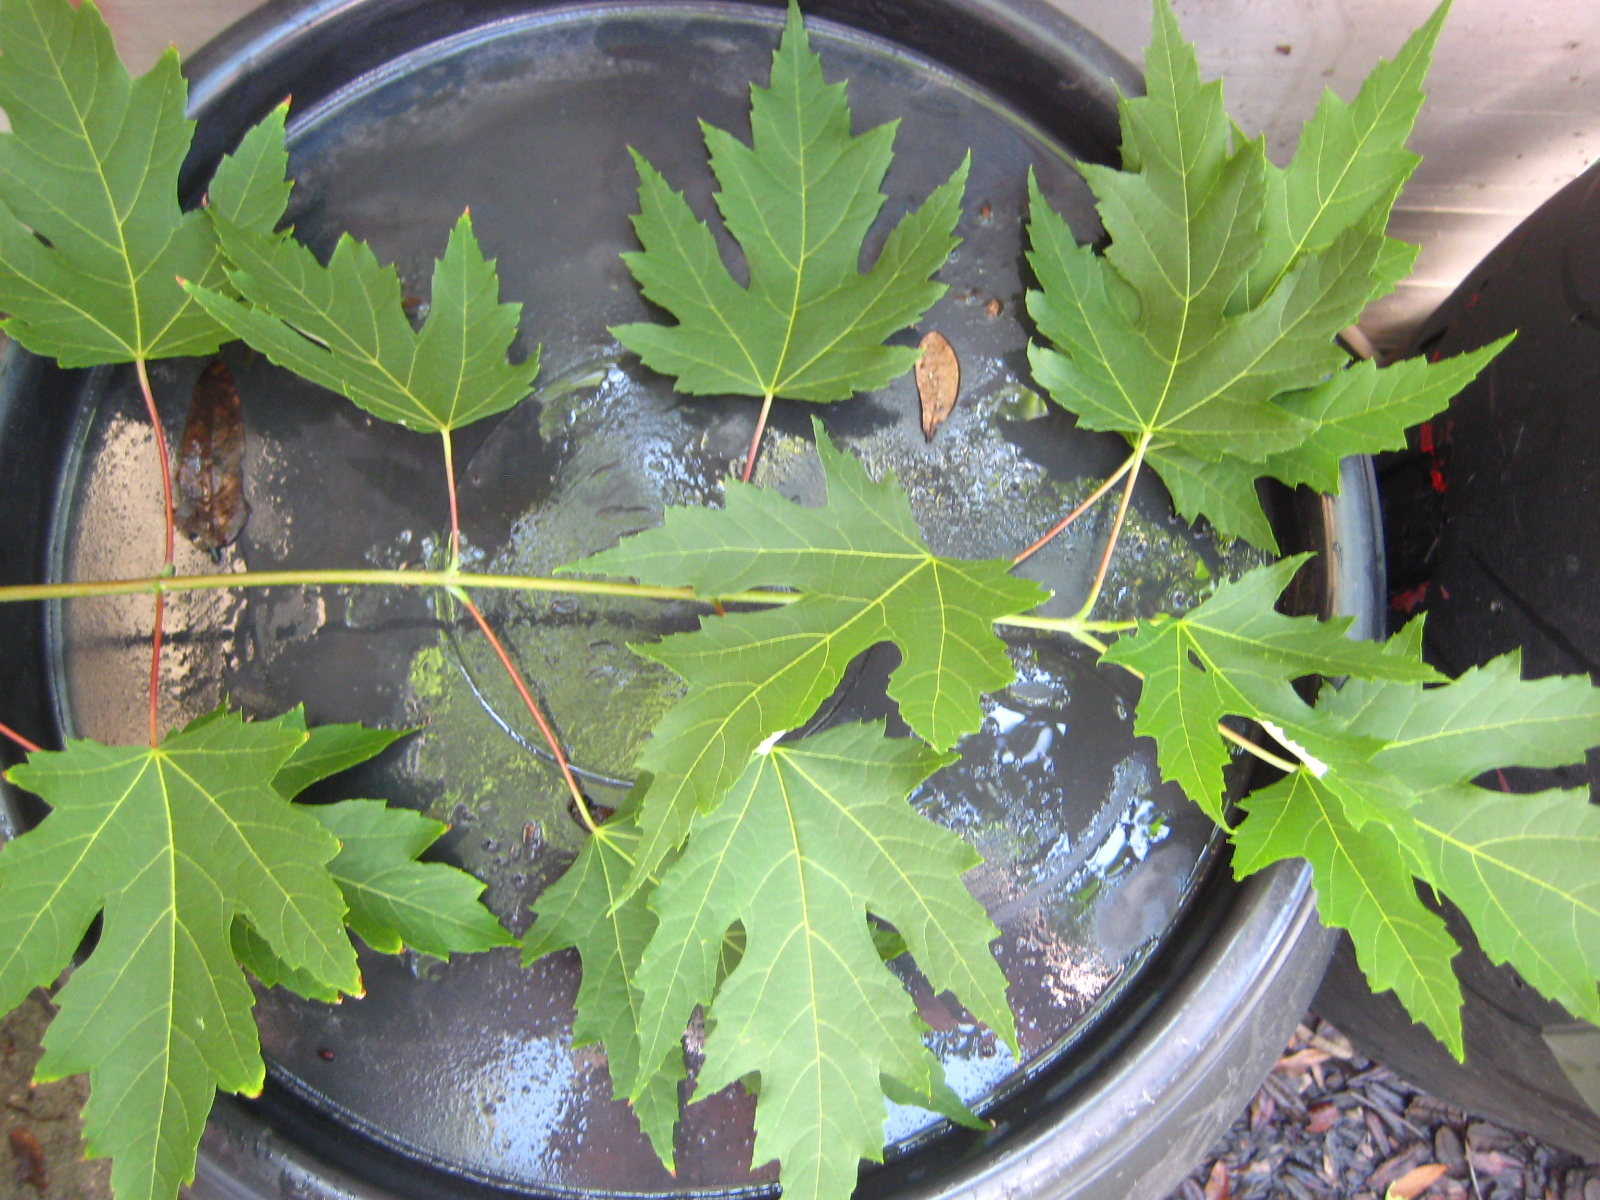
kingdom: Fungi
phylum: Basidiomycota
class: Agaricomycetes
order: Hymenochaetales
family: Hymenochaetaceae
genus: Inonotus
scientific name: Inonotus rickii
